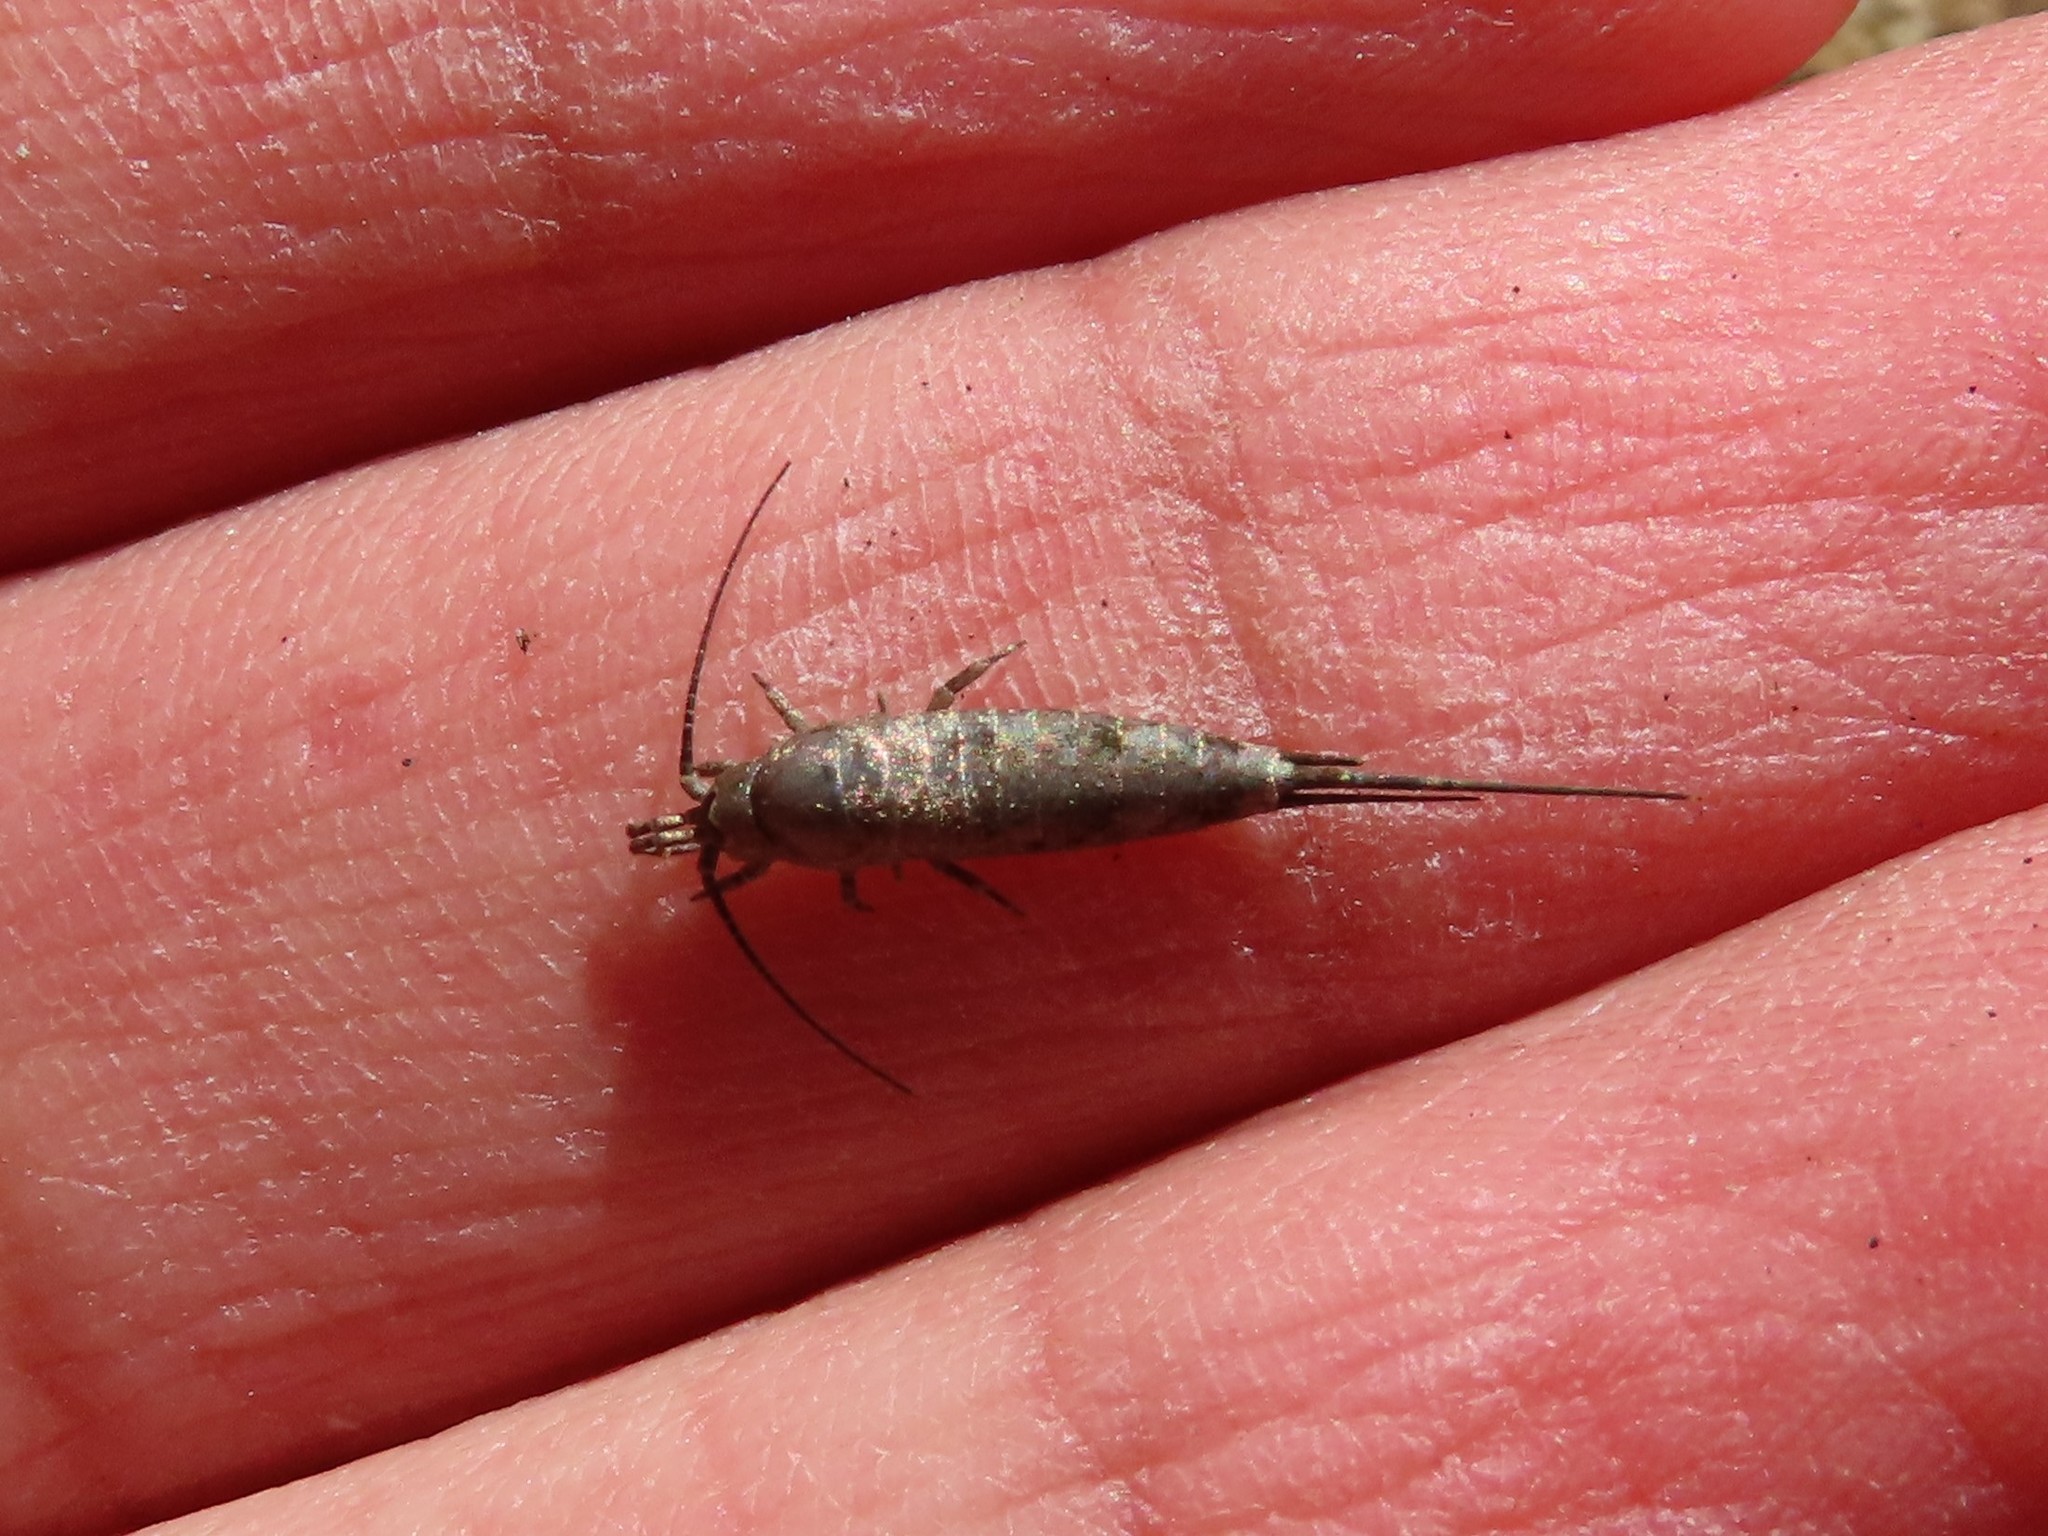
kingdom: Animalia
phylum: Arthropoda
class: Insecta
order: Archaeognatha
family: Machilidae
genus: Trigoniophthalmus
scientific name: Trigoniophthalmus alternatus
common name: Jumping bristletail
